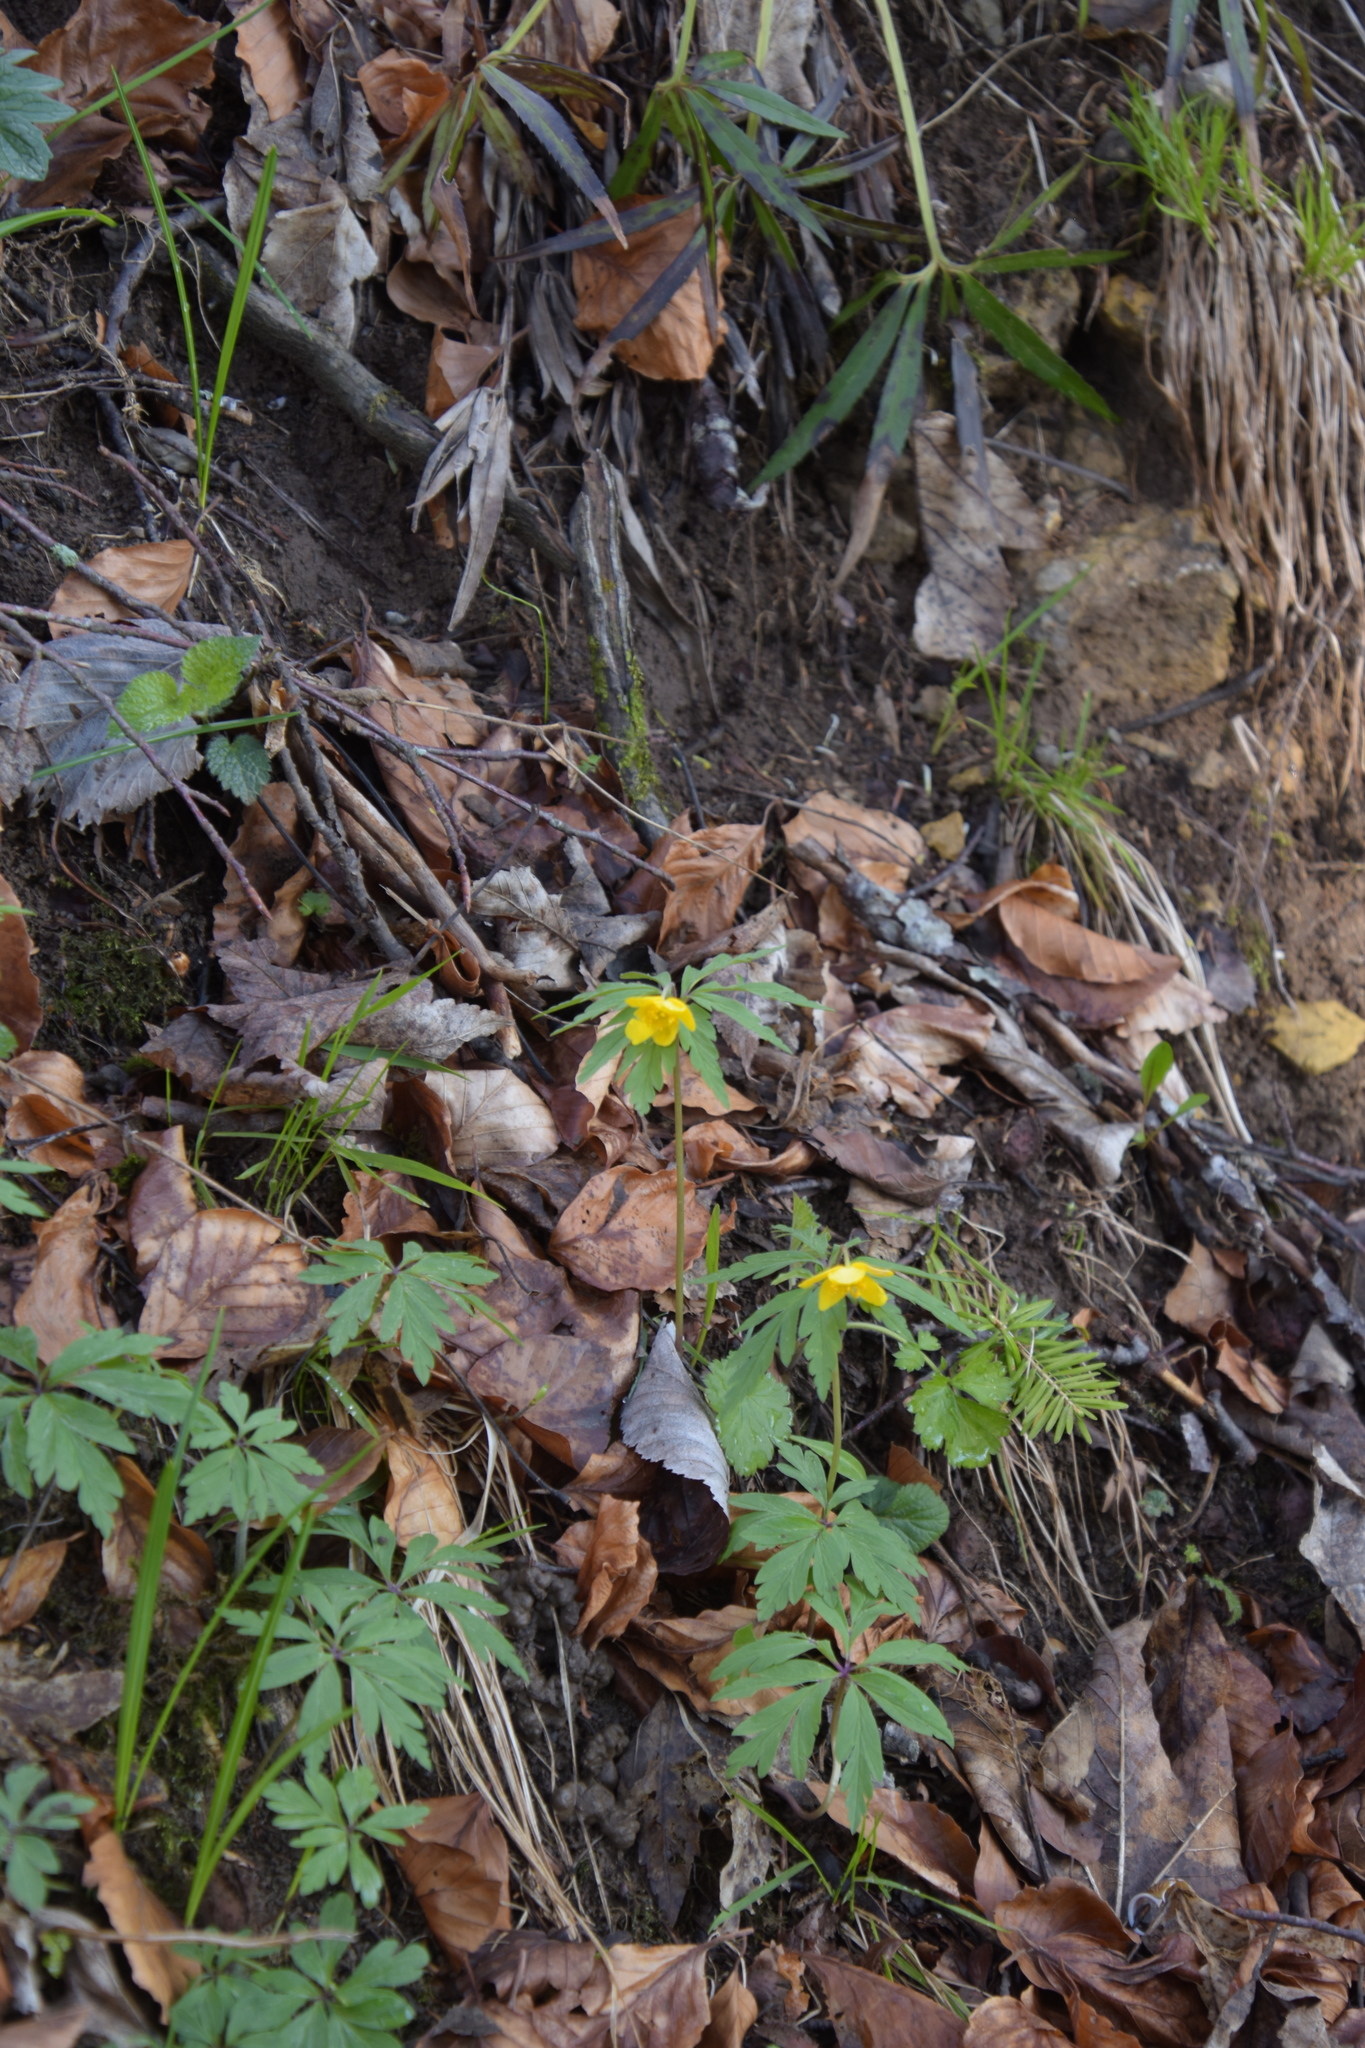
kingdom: Plantae
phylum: Tracheophyta
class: Magnoliopsida
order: Ranunculales
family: Ranunculaceae
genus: Anemone
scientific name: Anemone ranunculoides
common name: Yellow anemone
